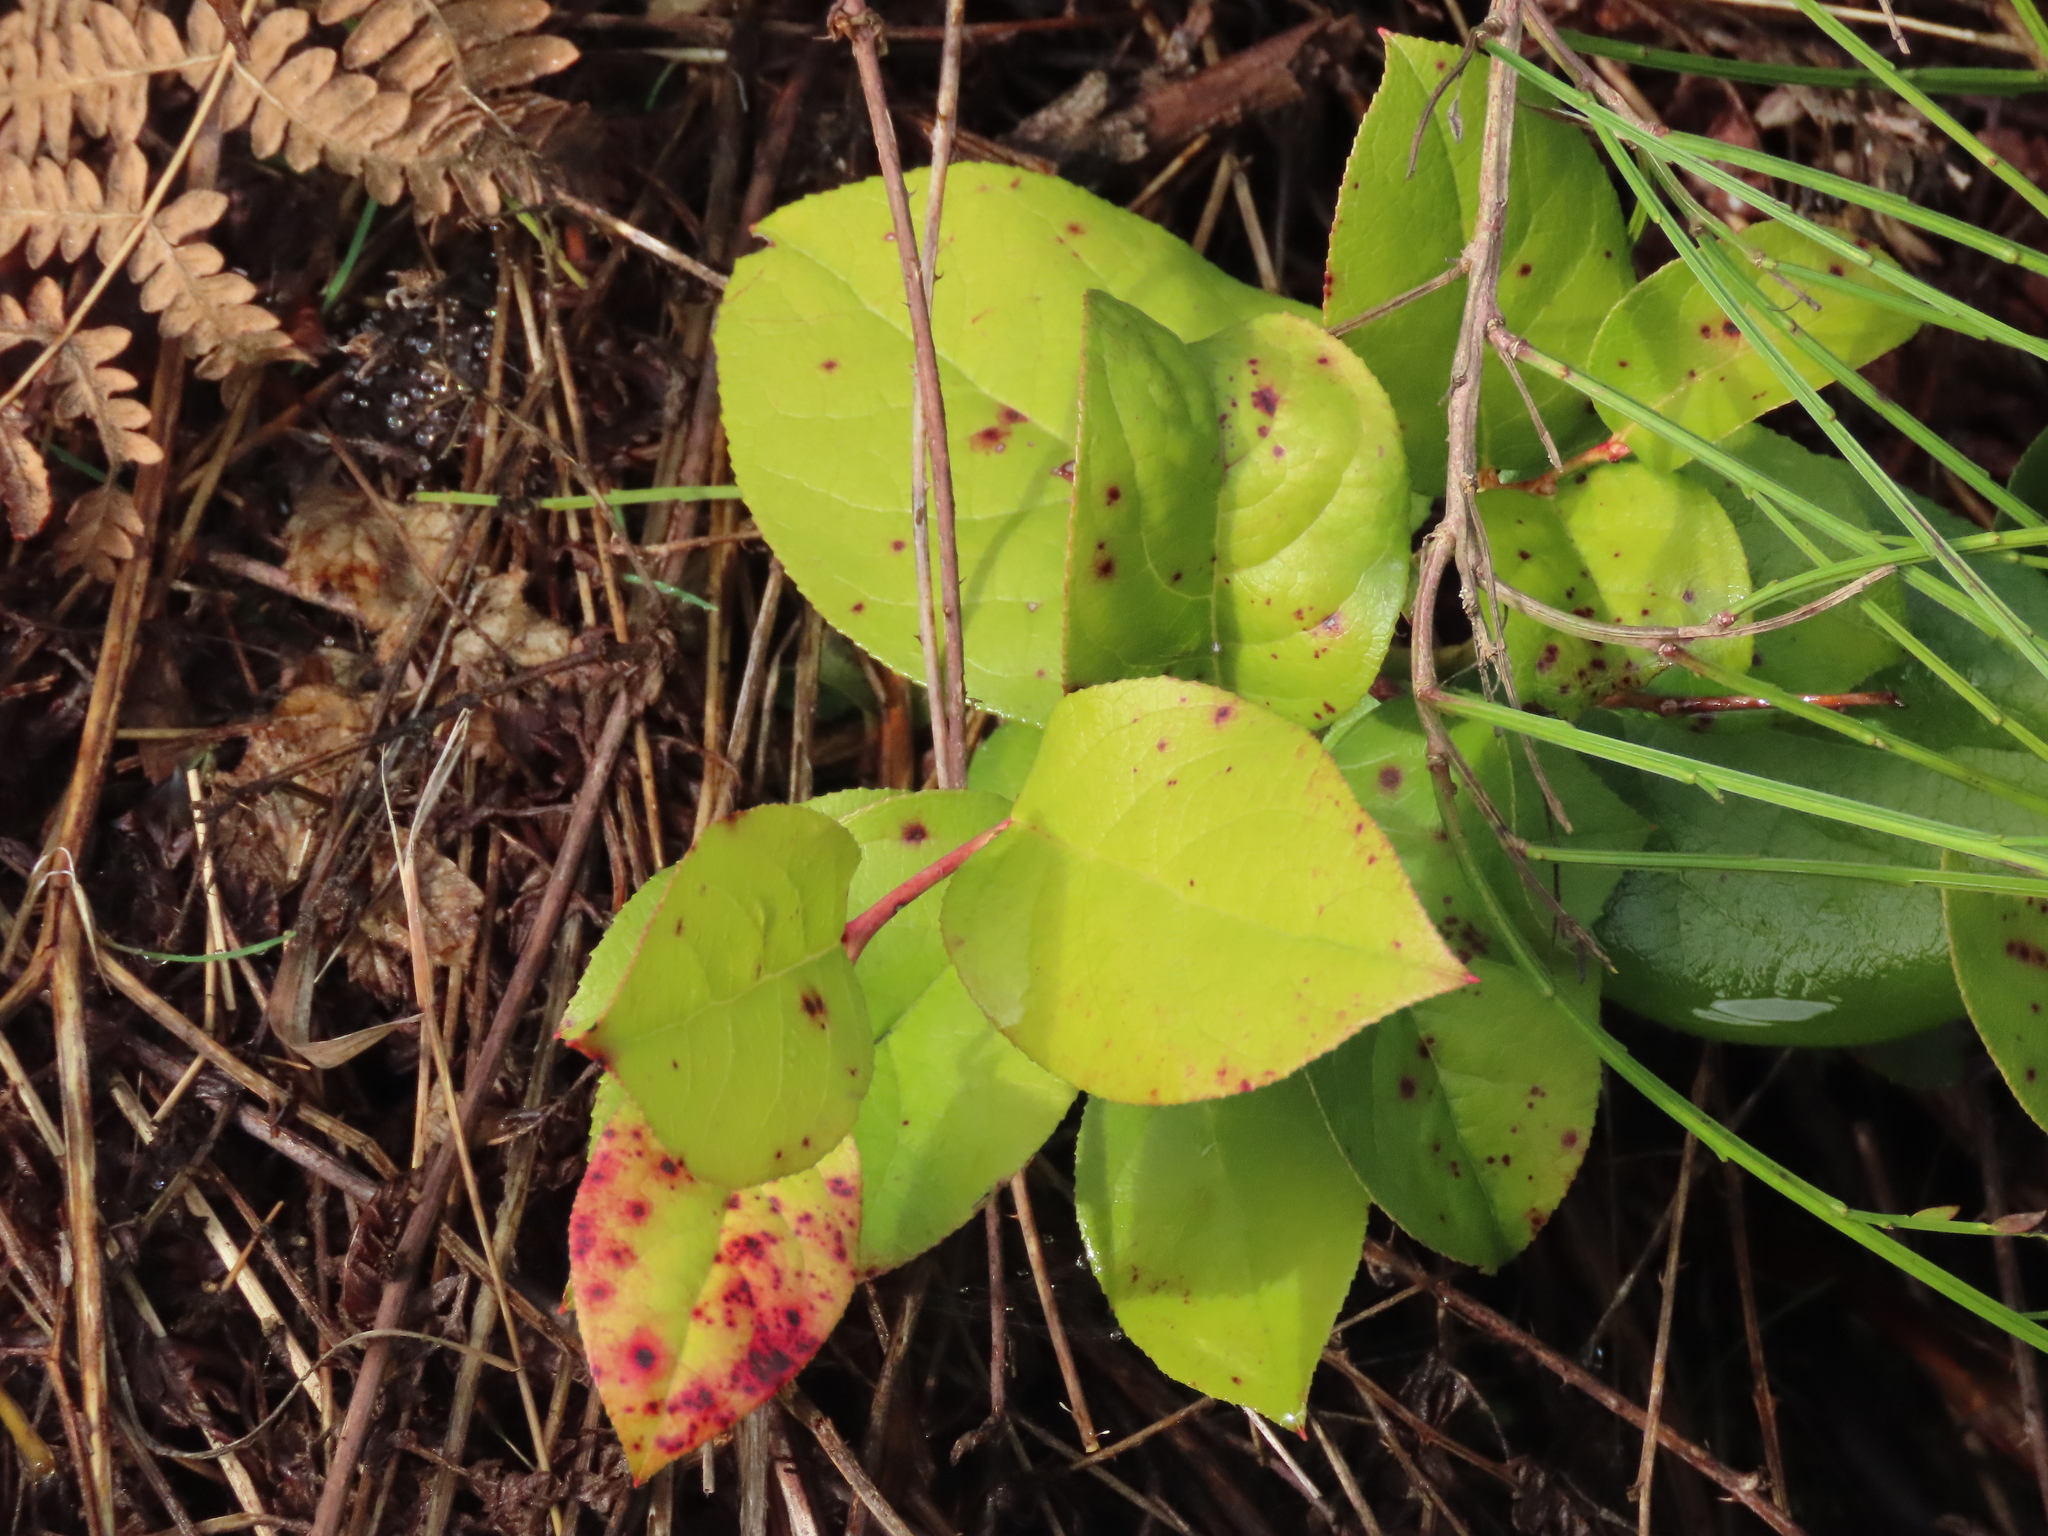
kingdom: Plantae
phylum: Tracheophyta
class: Magnoliopsida
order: Ericales
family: Ericaceae
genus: Gaultheria
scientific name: Gaultheria shallon
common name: Shallon
